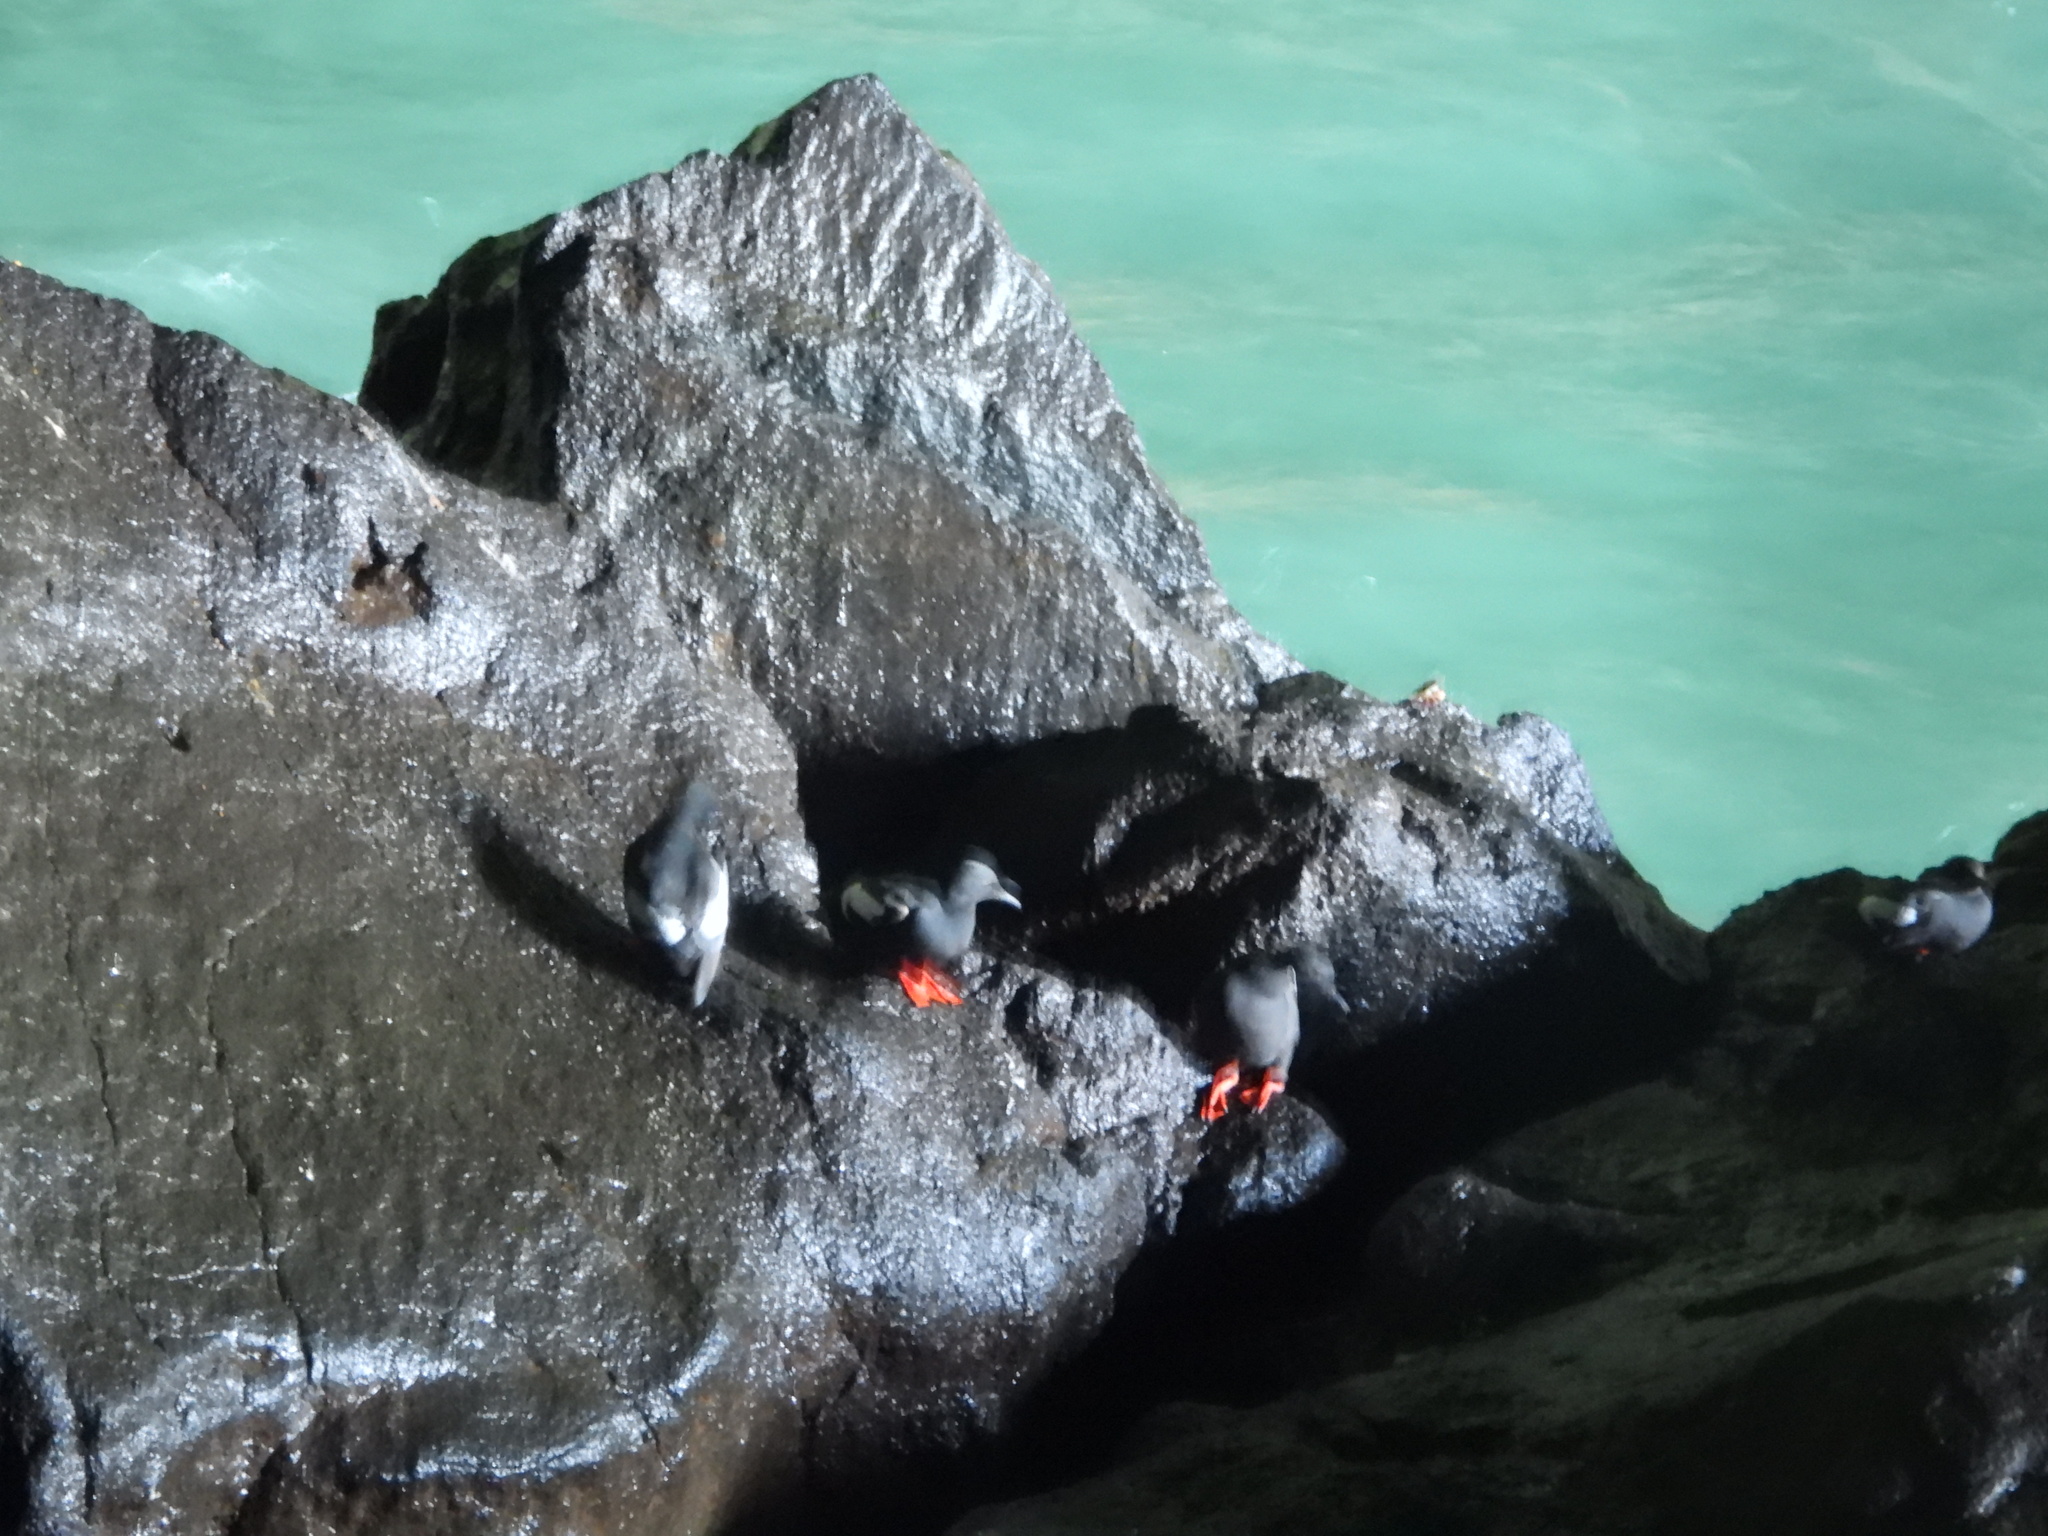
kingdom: Animalia
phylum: Chordata
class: Aves
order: Charadriiformes
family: Alcidae
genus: Cepphus
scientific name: Cepphus columba
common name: Pigeon guillemot
